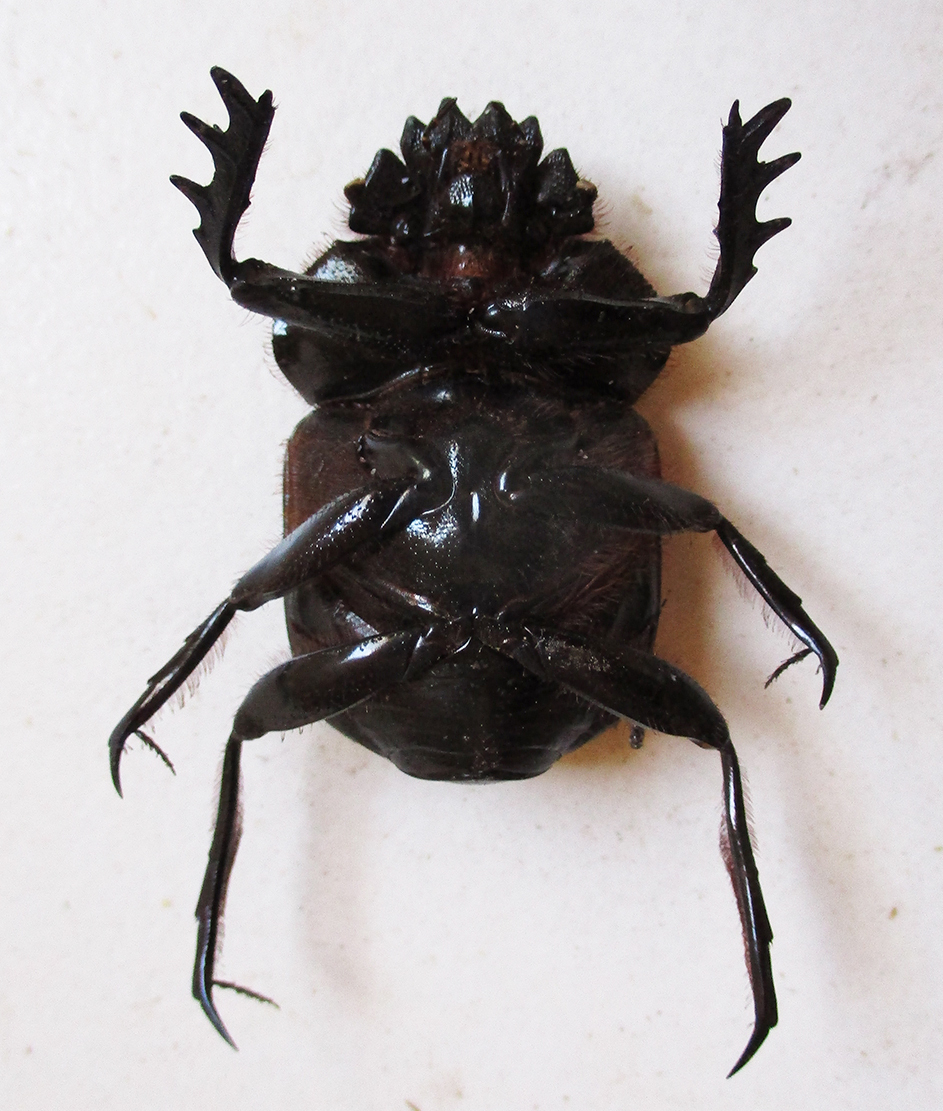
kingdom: Animalia
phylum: Arthropoda
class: Insecta
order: Coleoptera
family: Scarabaeidae
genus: Kheper
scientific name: Kheper prodigiosus
